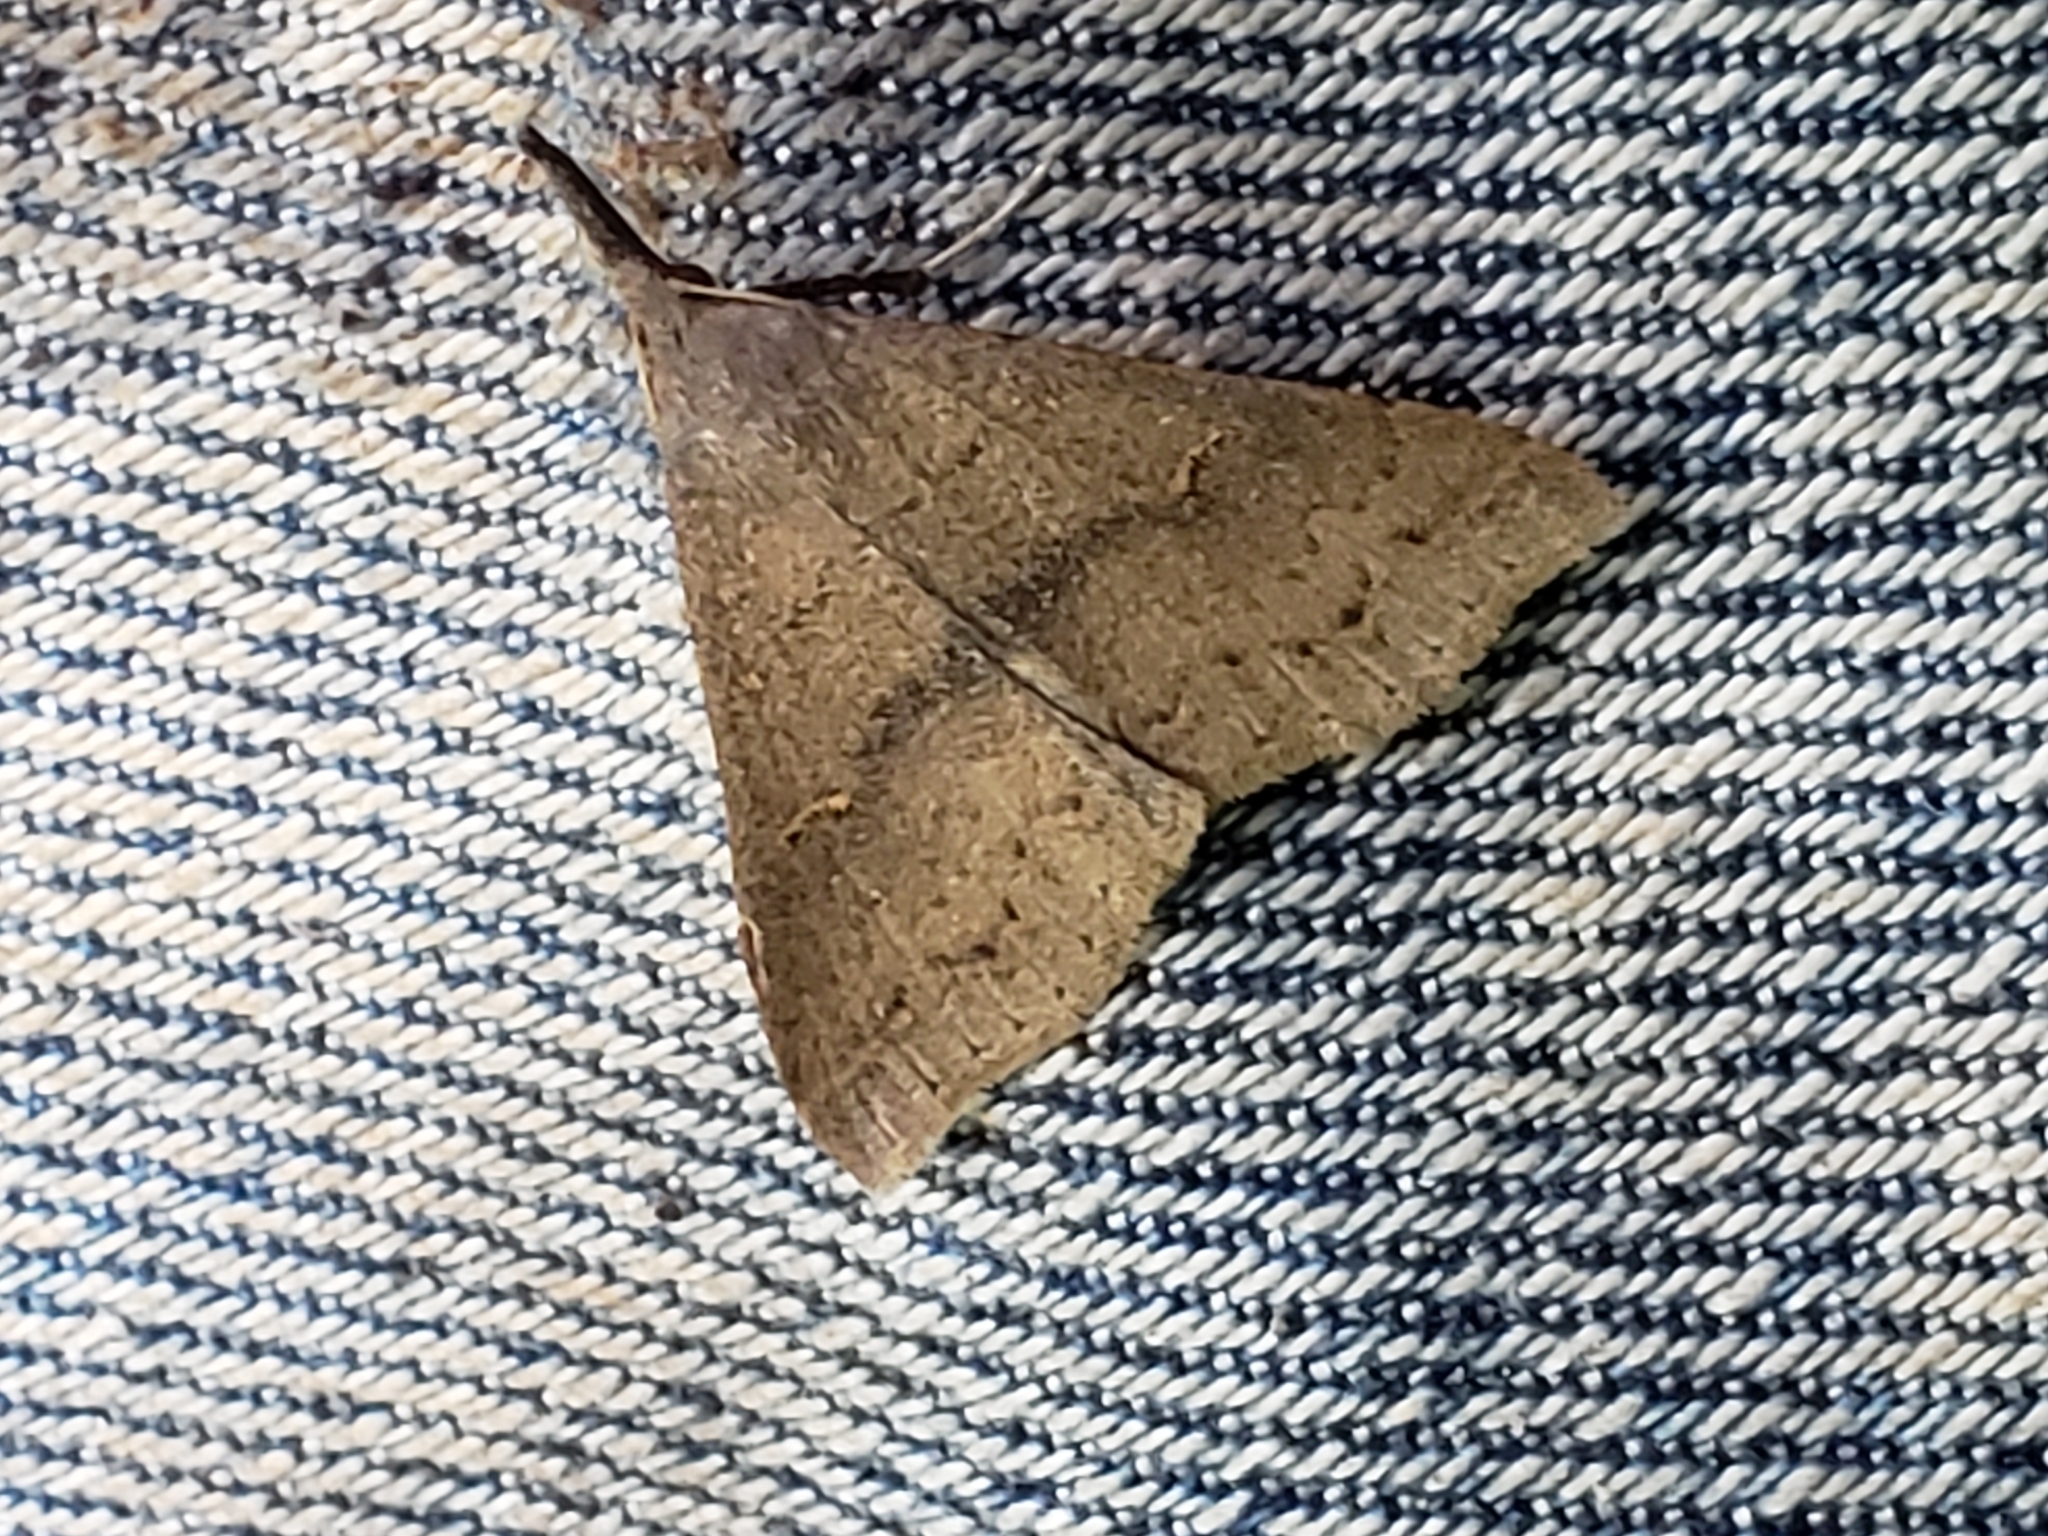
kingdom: Animalia
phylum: Arthropoda
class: Insecta
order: Lepidoptera
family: Erebidae
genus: Renia
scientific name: Renia adspergillus
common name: Speckled renia moth
